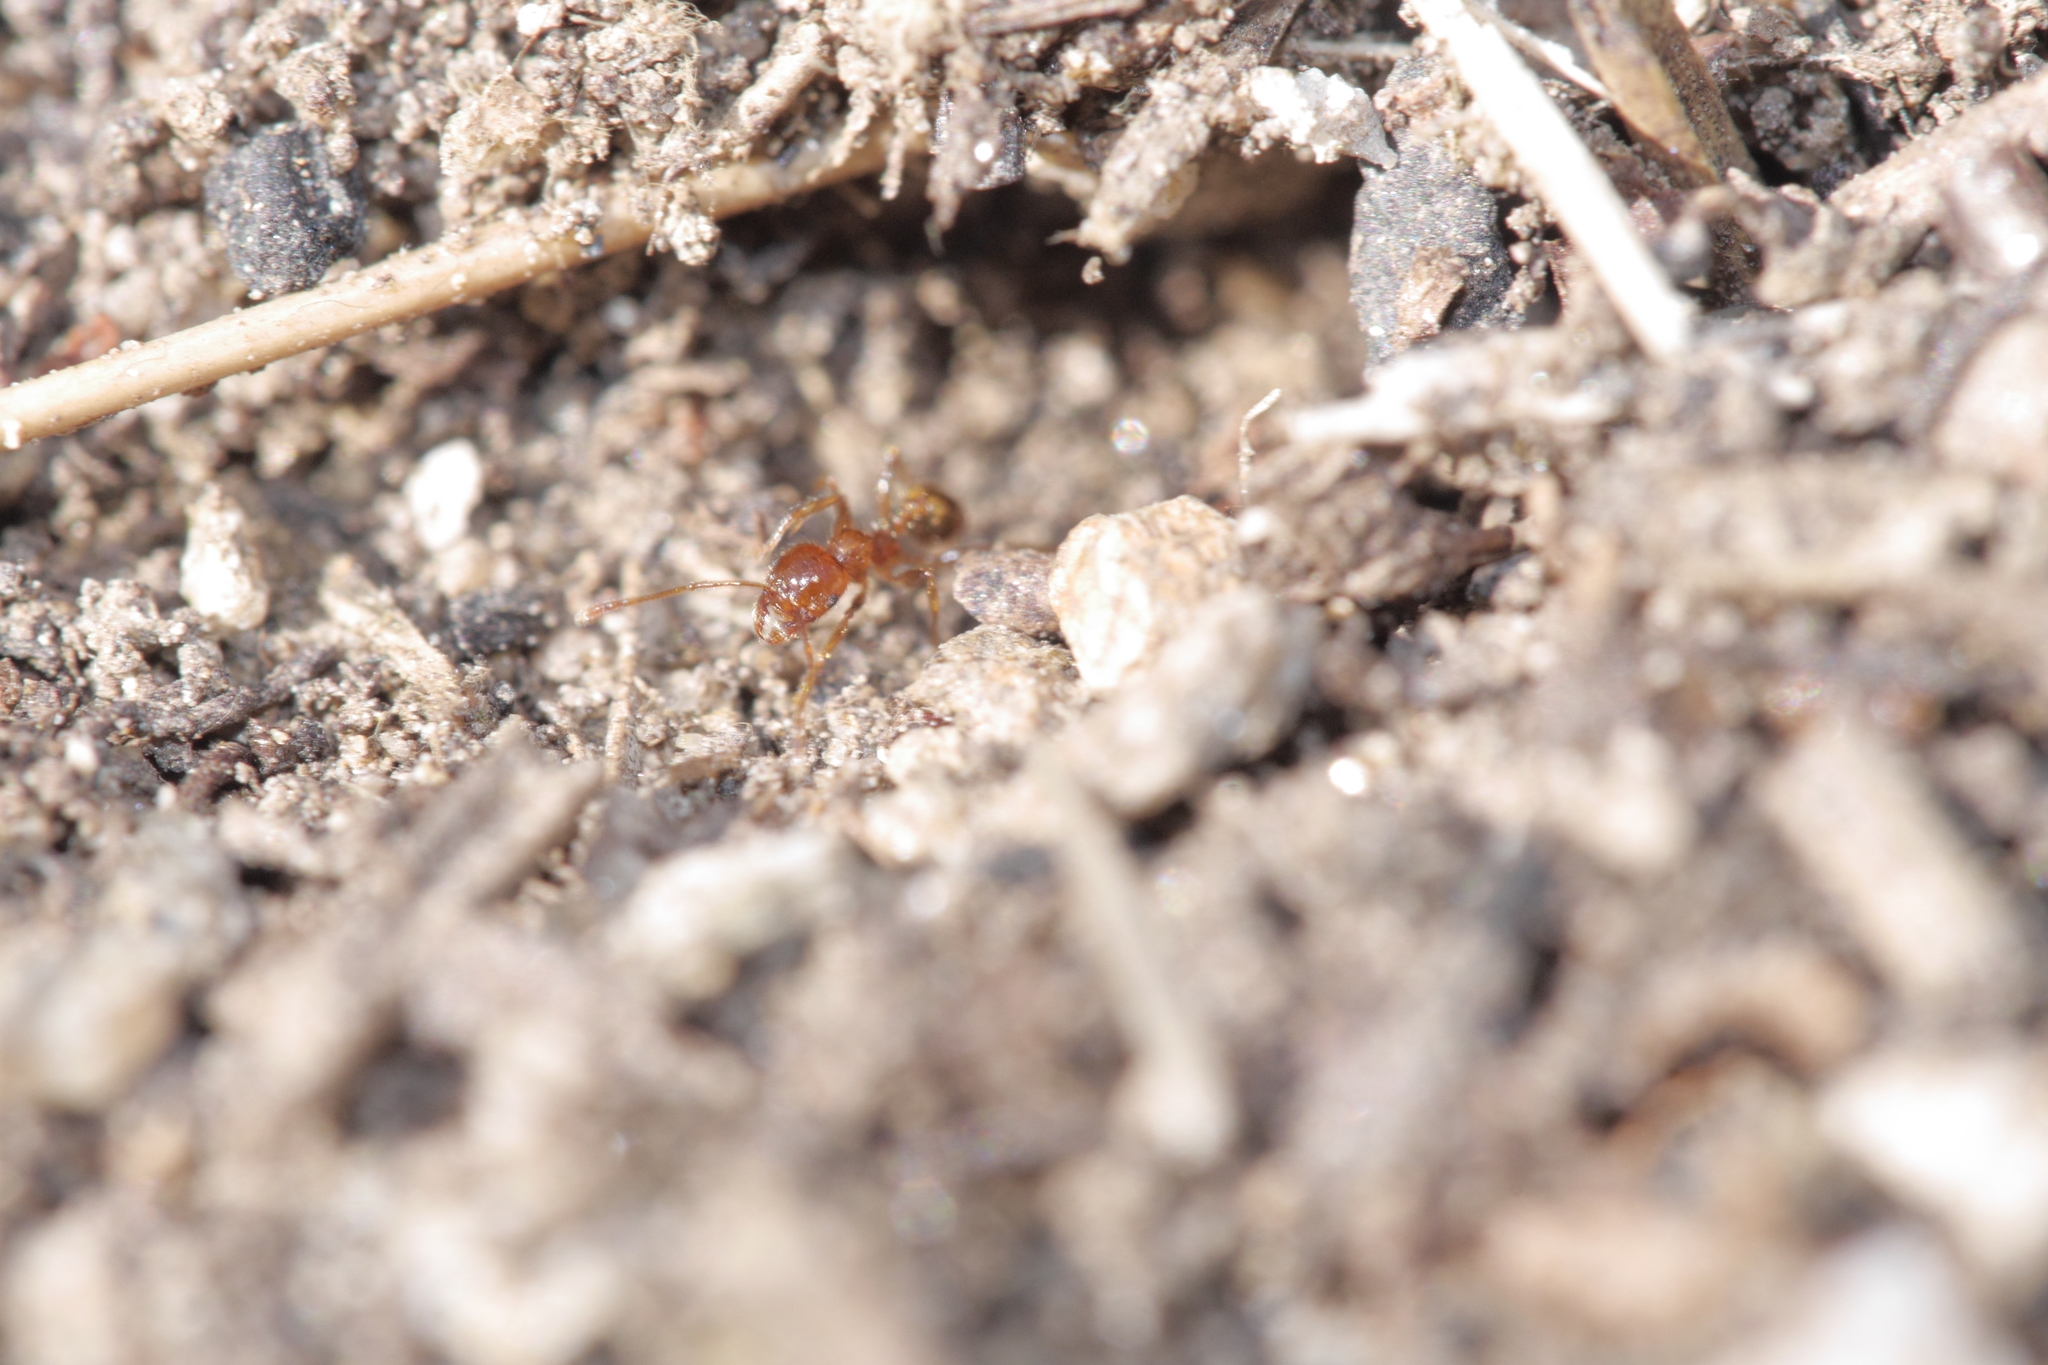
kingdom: Animalia
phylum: Arthropoda
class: Insecta
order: Hymenoptera
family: Formicidae
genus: Pheidole
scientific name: Pheidole pallidula
